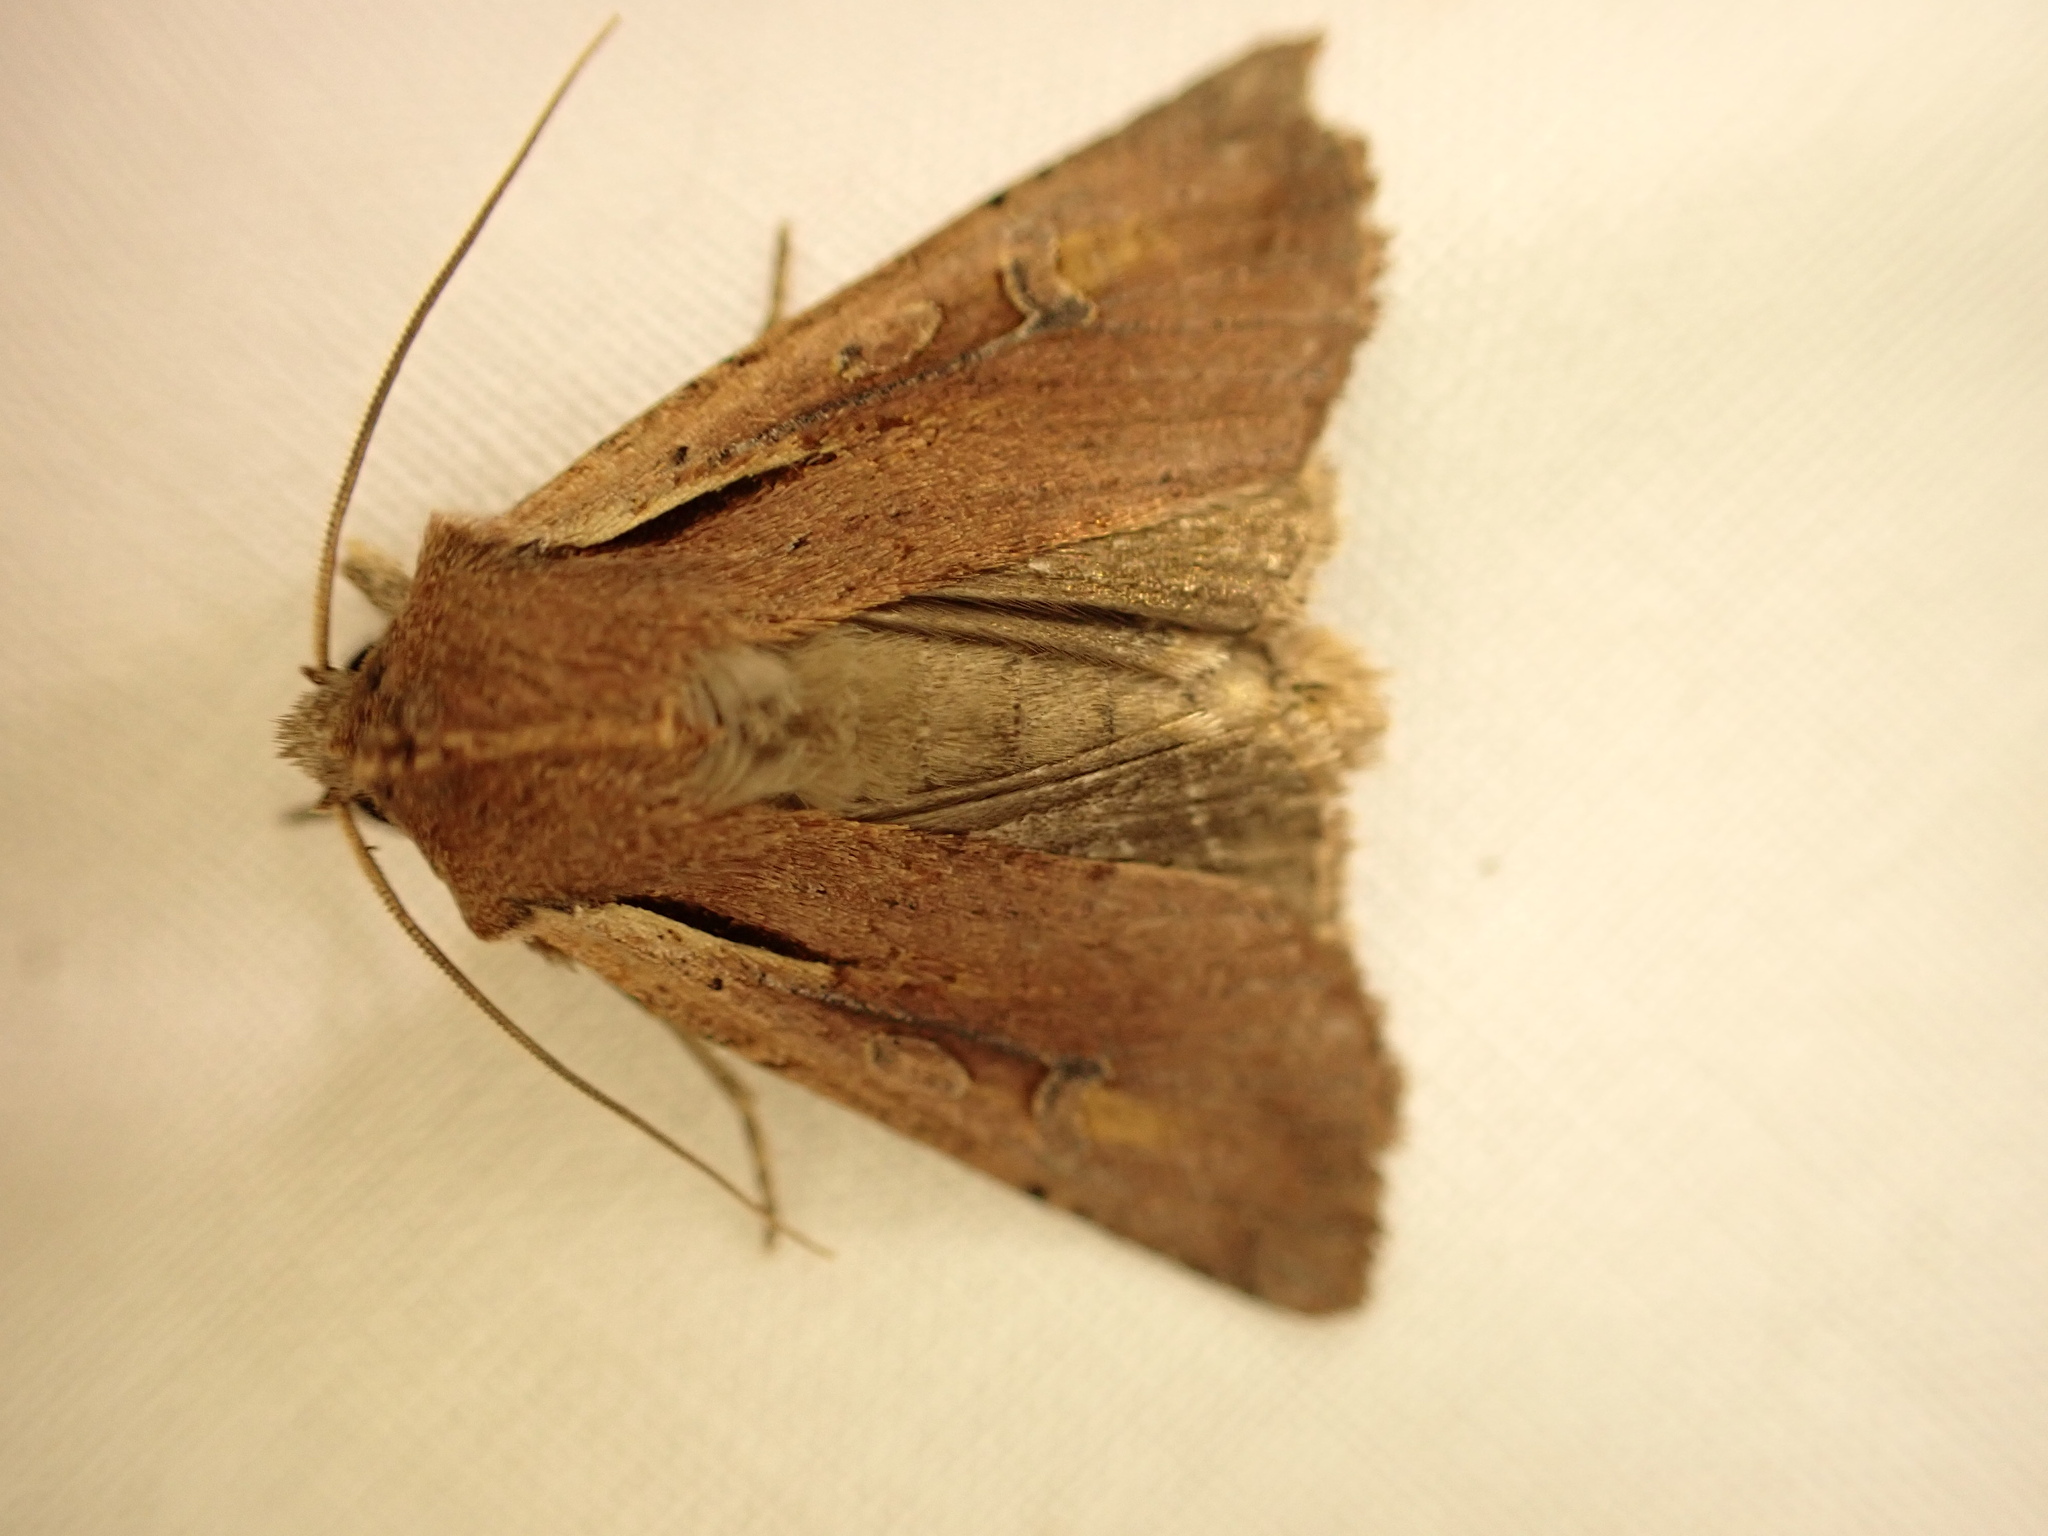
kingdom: Animalia
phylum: Arthropoda
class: Insecta
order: Lepidoptera
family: Noctuidae
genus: Ichneutica
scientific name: Ichneutica atristriga
